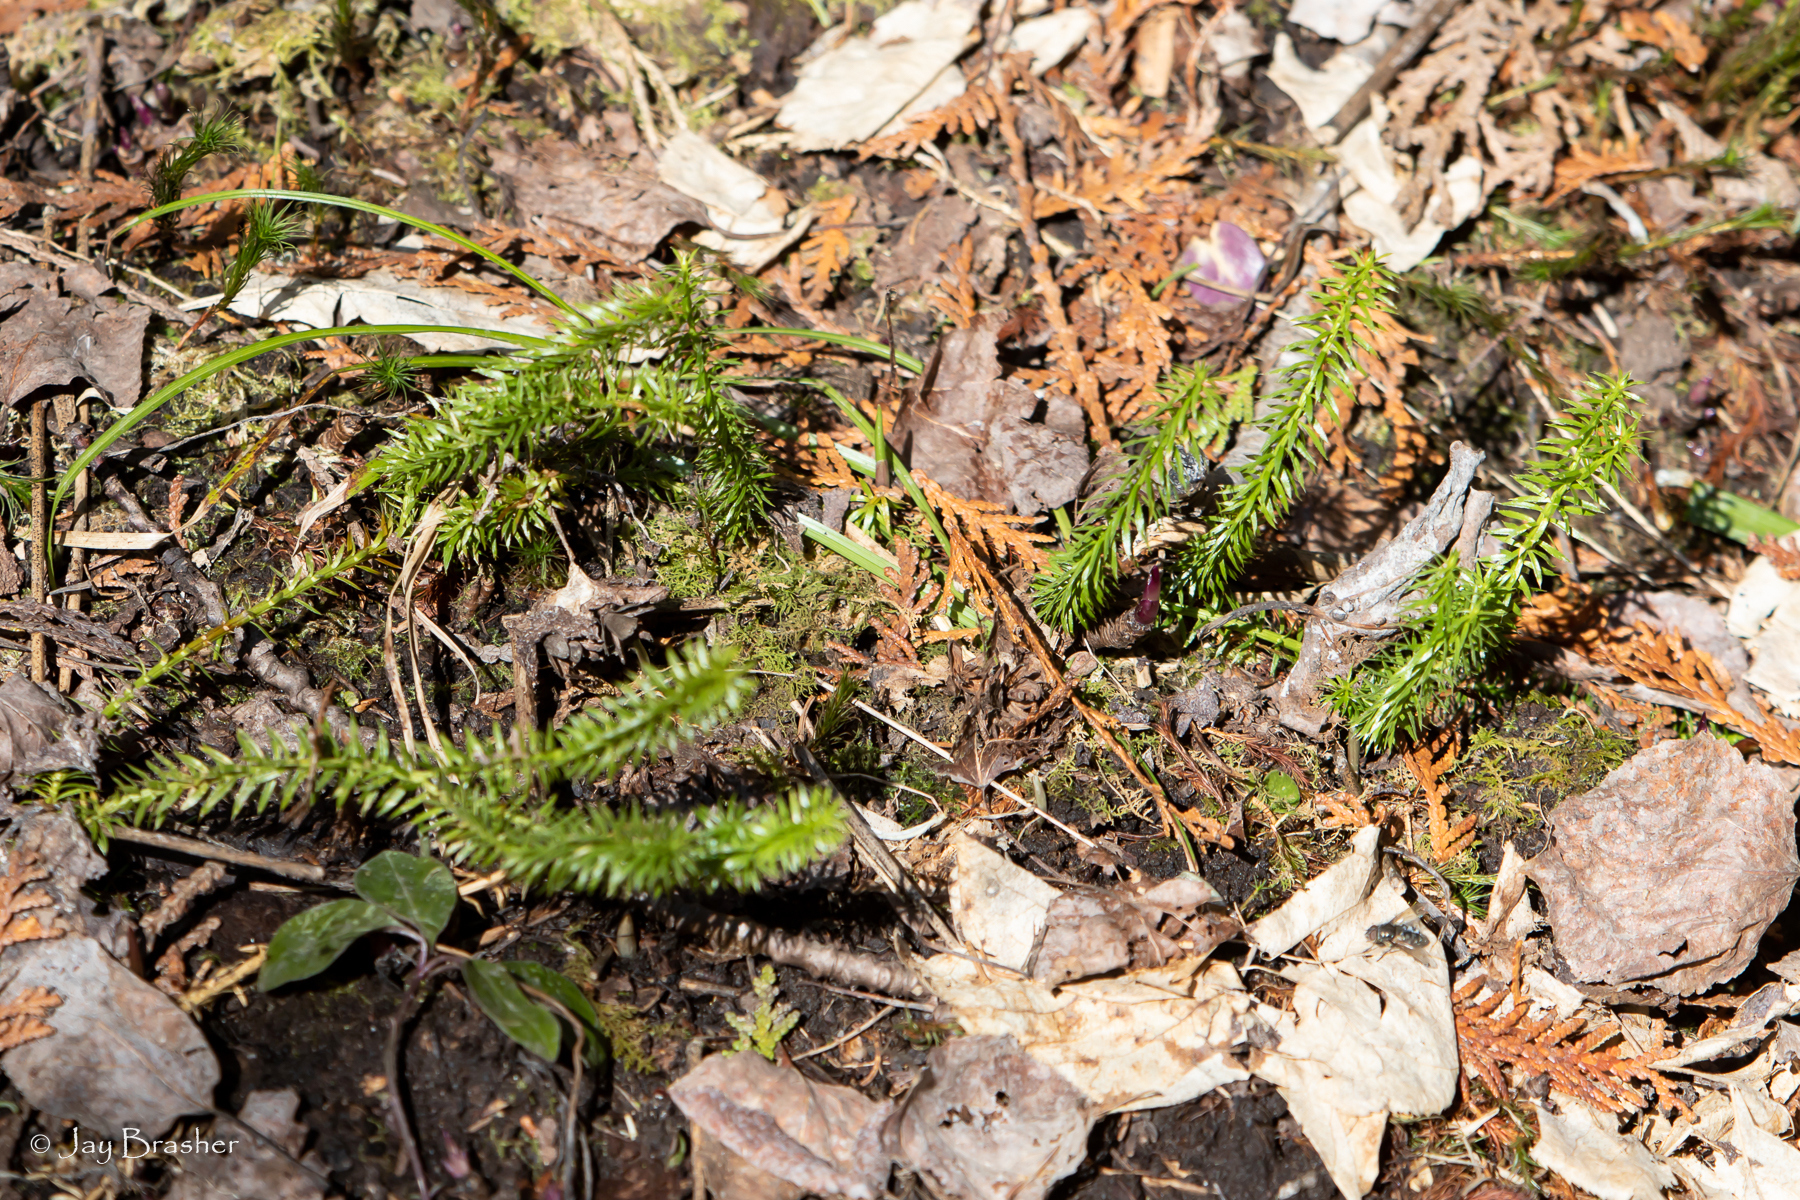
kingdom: Plantae
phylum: Tracheophyta
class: Lycopodiopsida
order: Lycopodiales
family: Lycopodiaceae
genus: Spinulum
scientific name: Spinulum annotinum
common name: Interrupted club-moss
